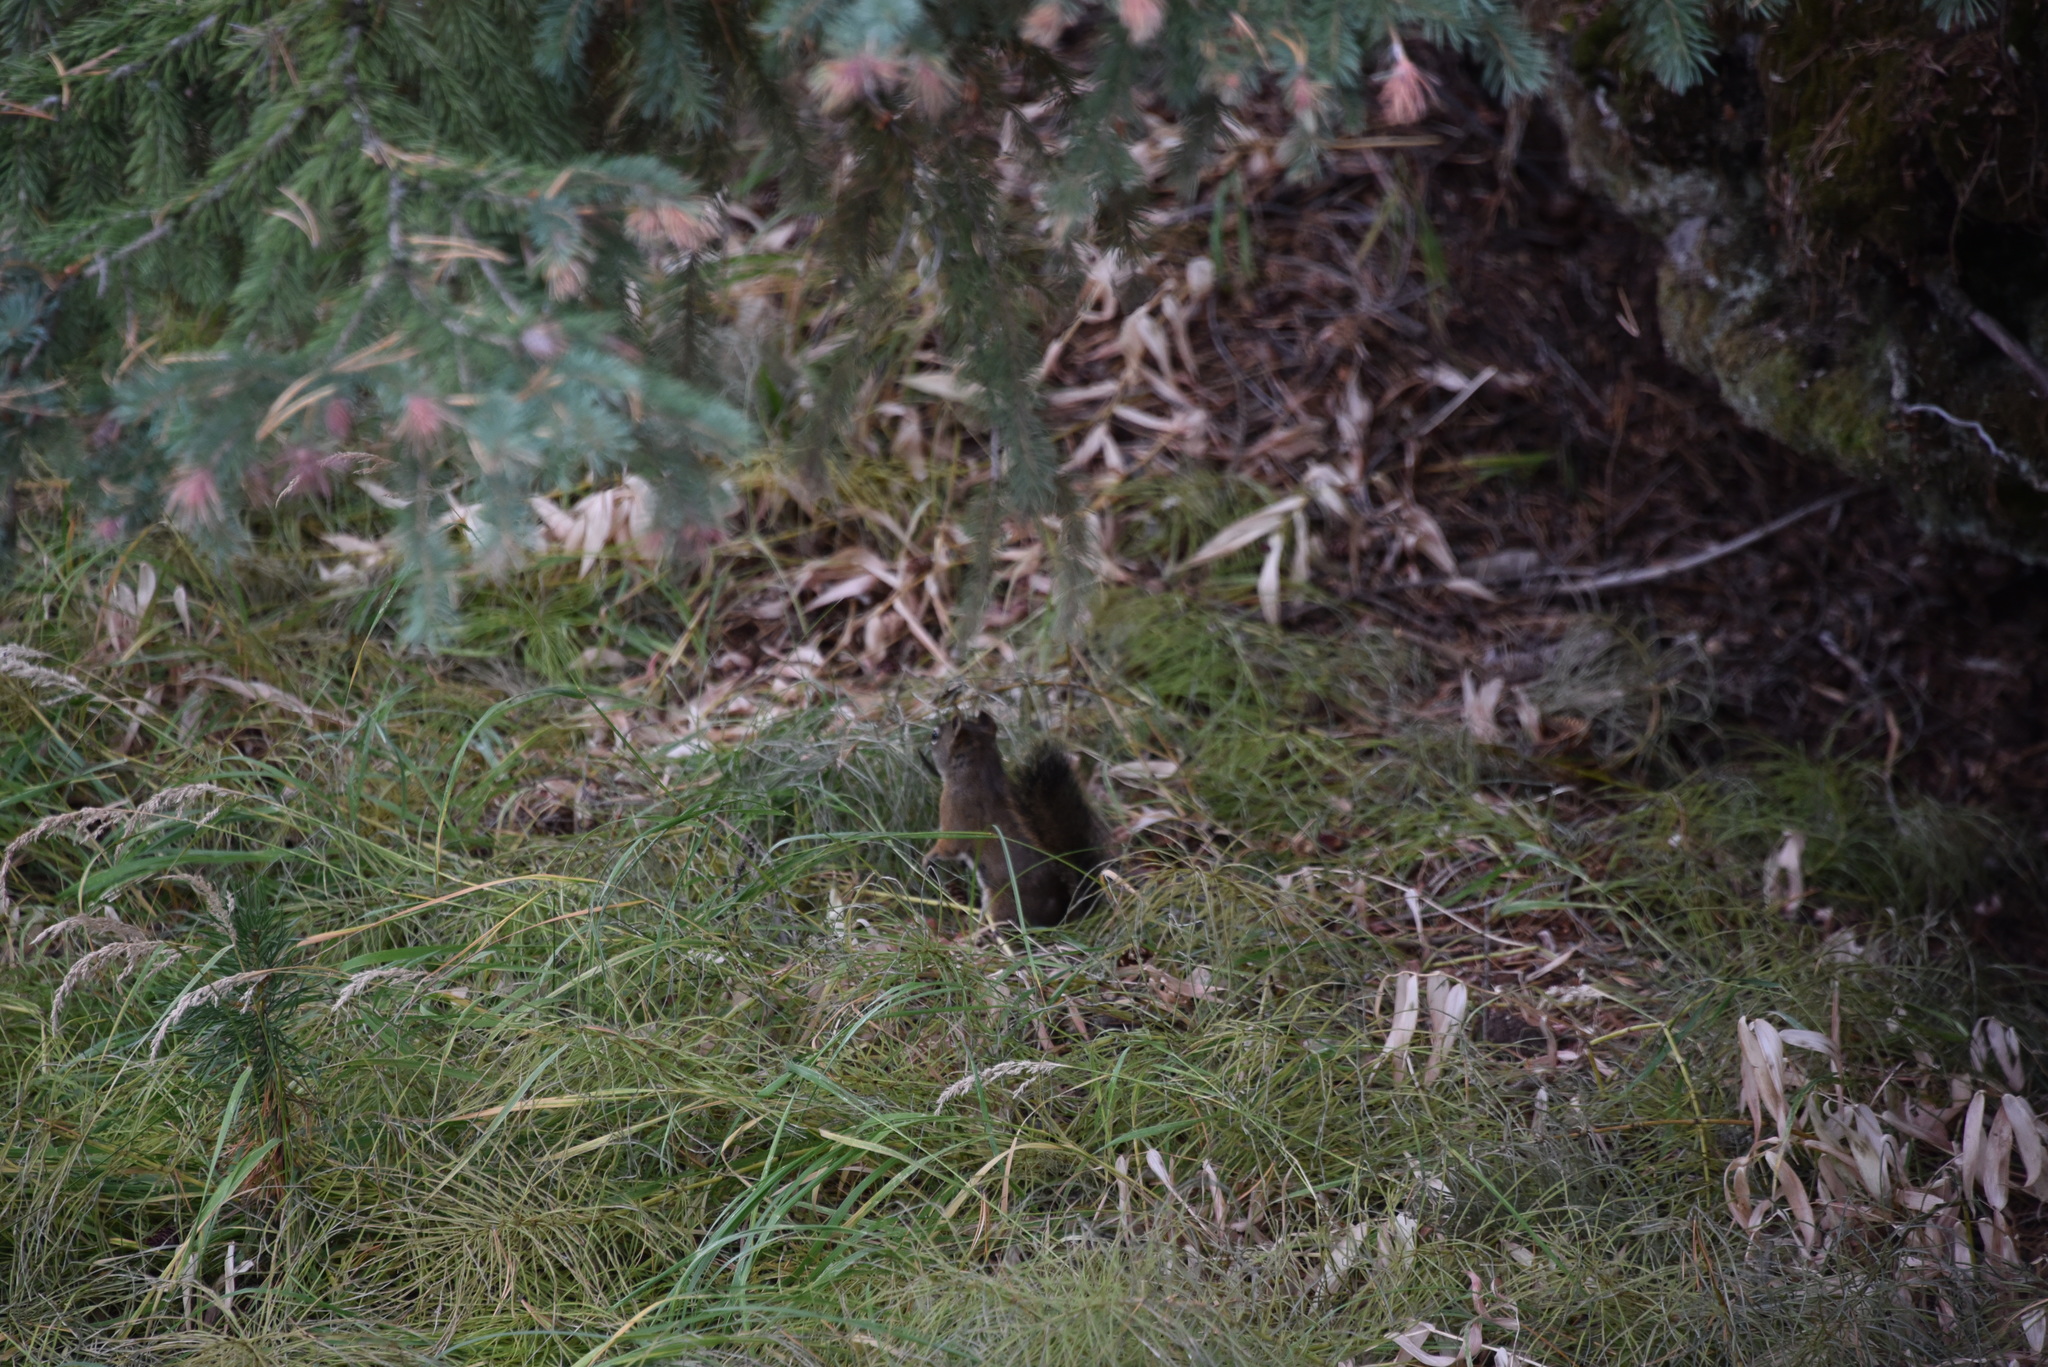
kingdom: Animalia
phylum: Chordata
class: Mammalia
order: Rodentia
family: Sciuridae
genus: Tamiasciurus
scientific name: Tamiasciurus hudsonicus
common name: Red squirrel
